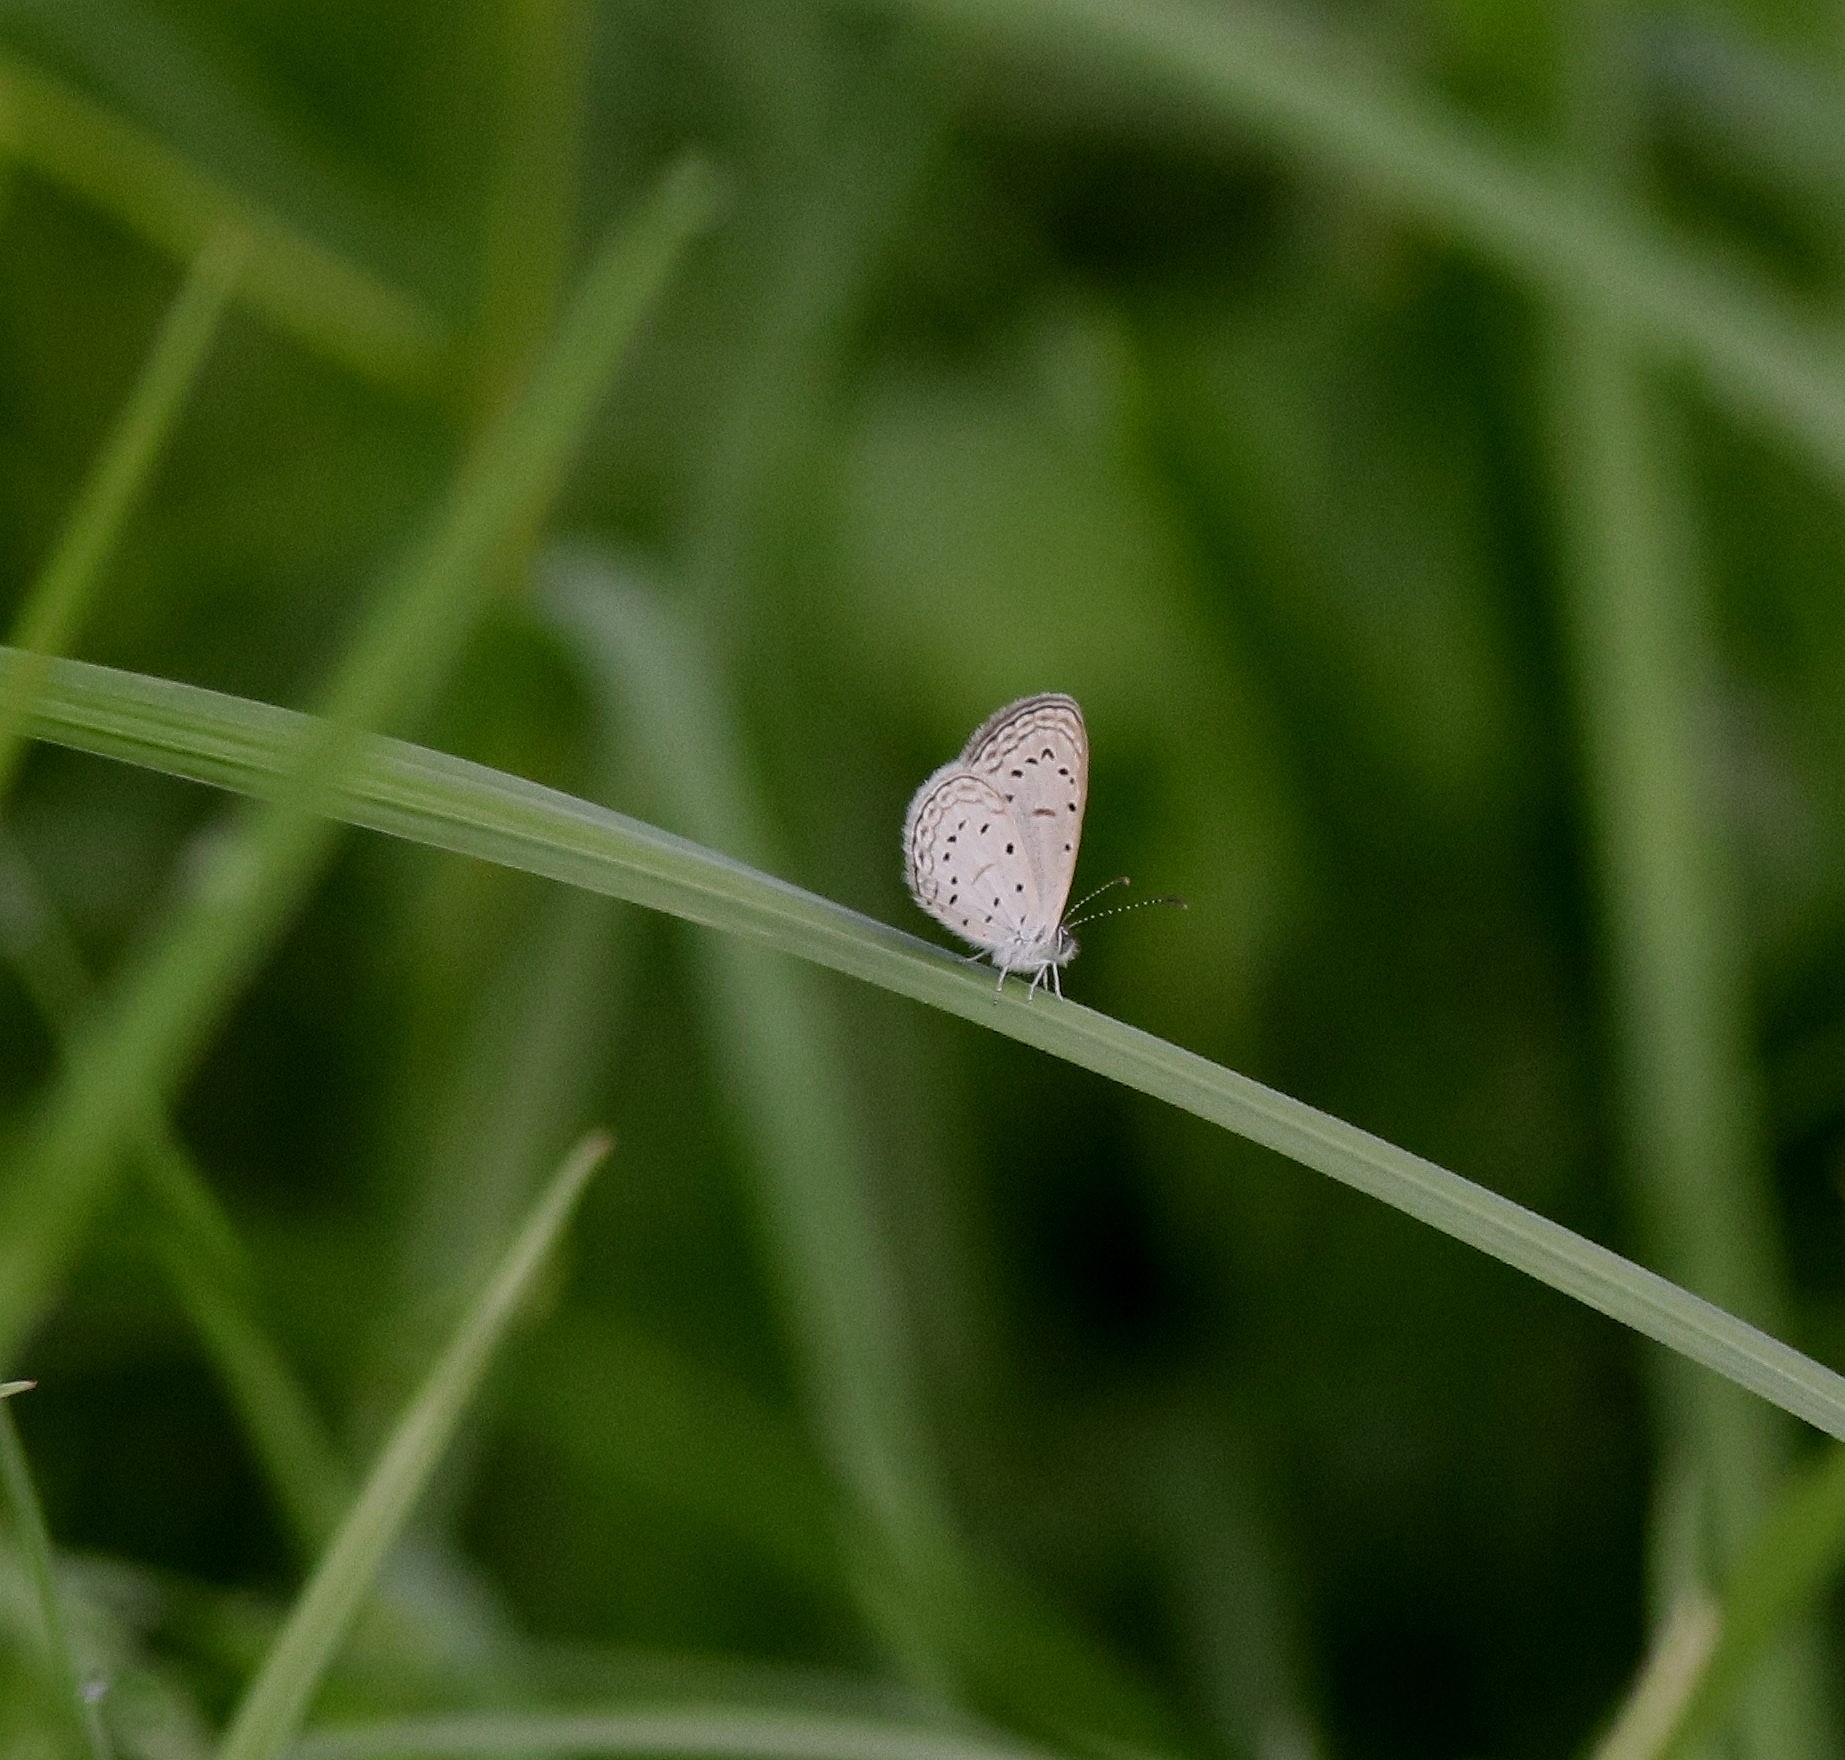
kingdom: Animalia
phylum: Arthropoda
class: Insecta
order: Lepidoptera
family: Lycaenidae
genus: Zizula
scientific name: Zizula hylax
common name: Gaika blue
